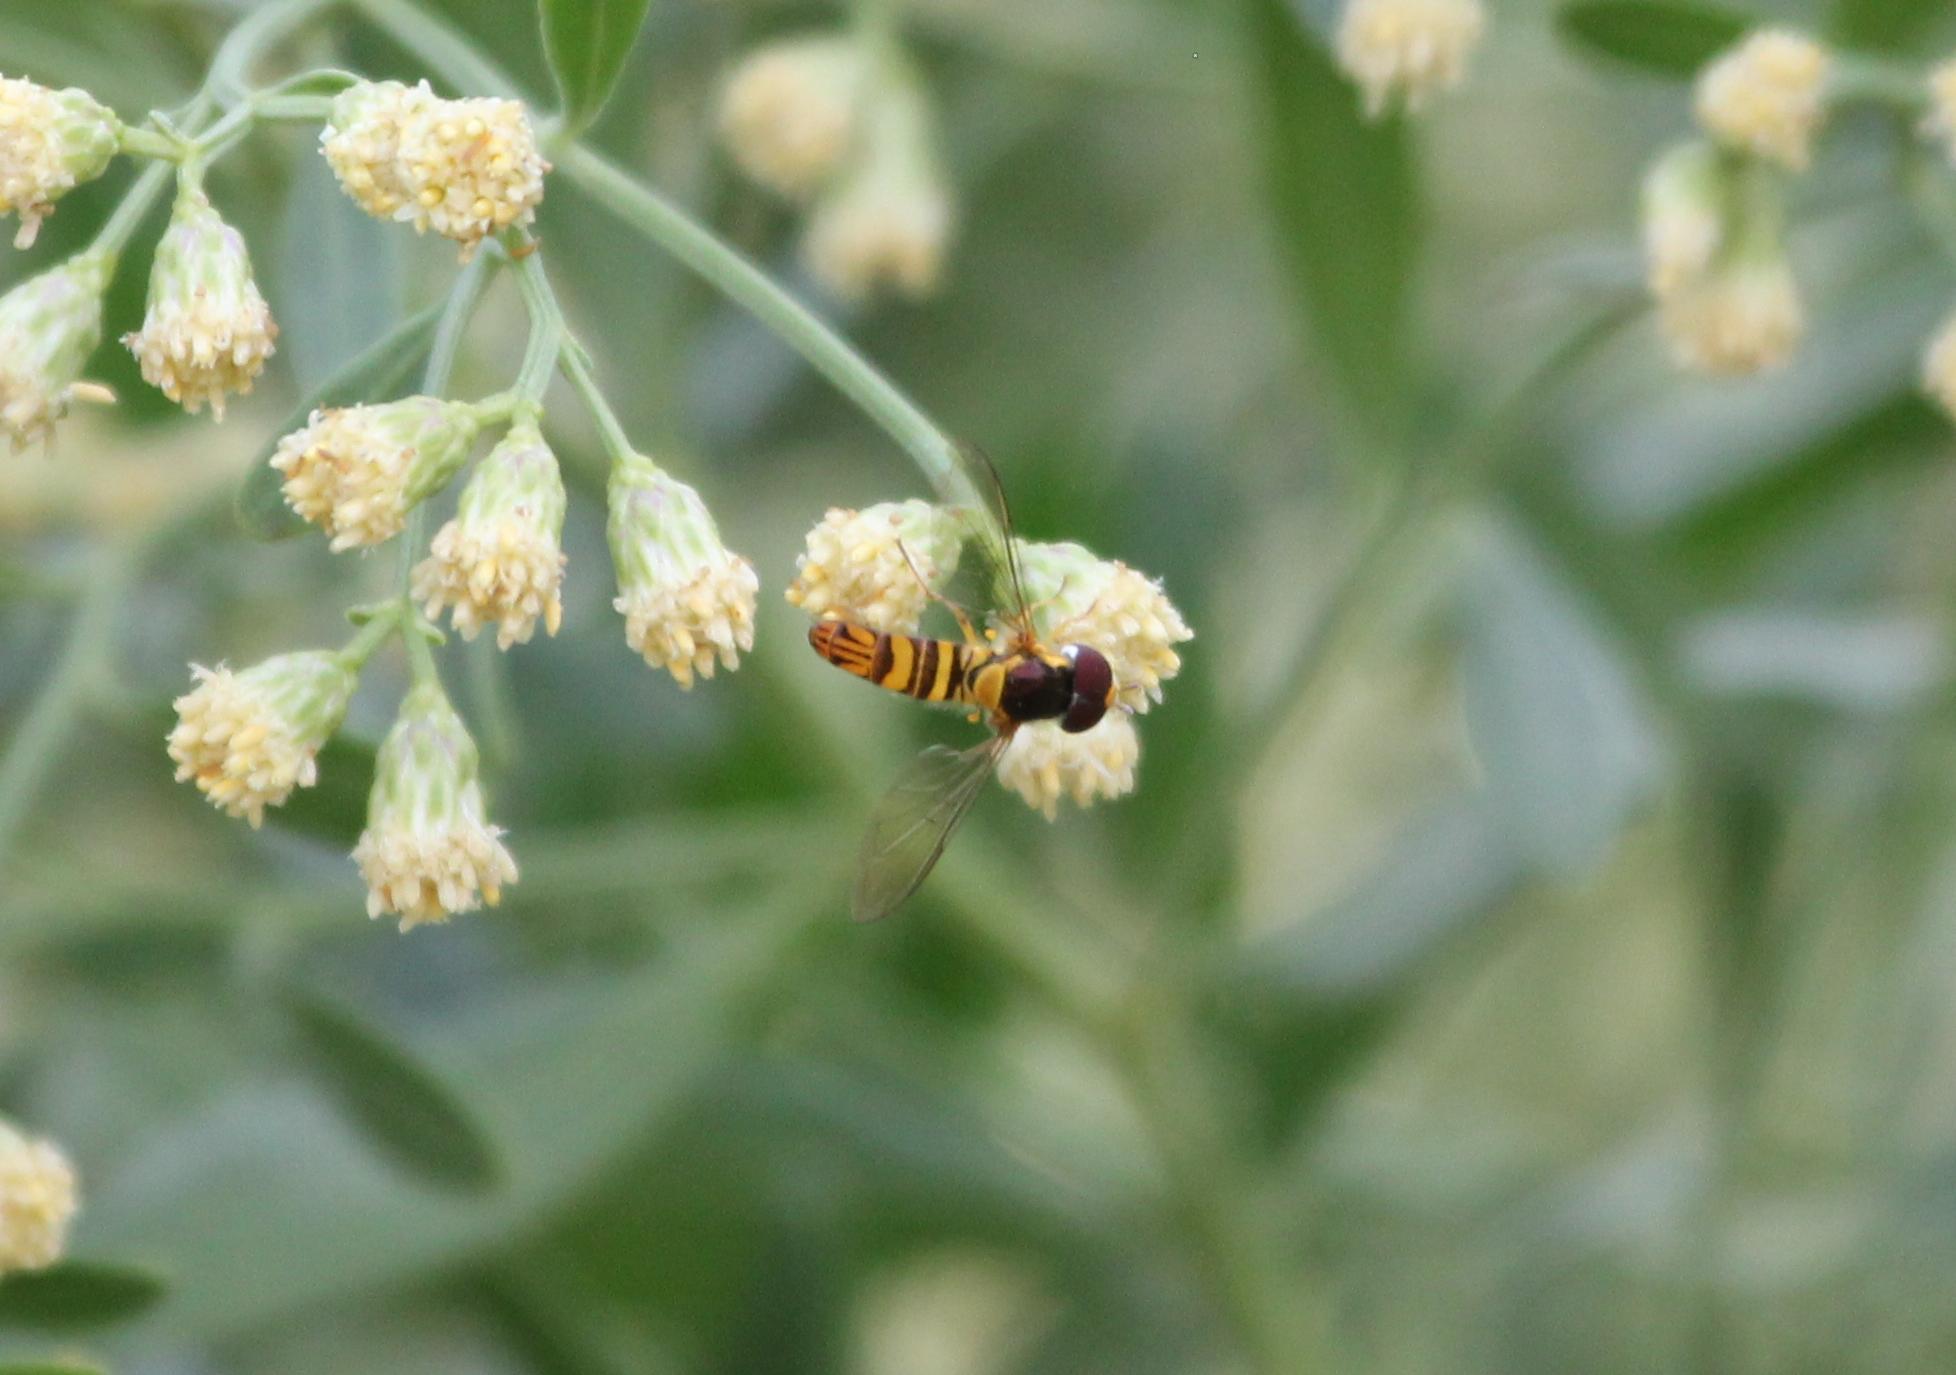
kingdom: Animalia
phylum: Arthropoda
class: Insecta
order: Diptera
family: Syrphidae
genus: Allograpta
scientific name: Allograpta obliqua
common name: Common oblique syrphid
